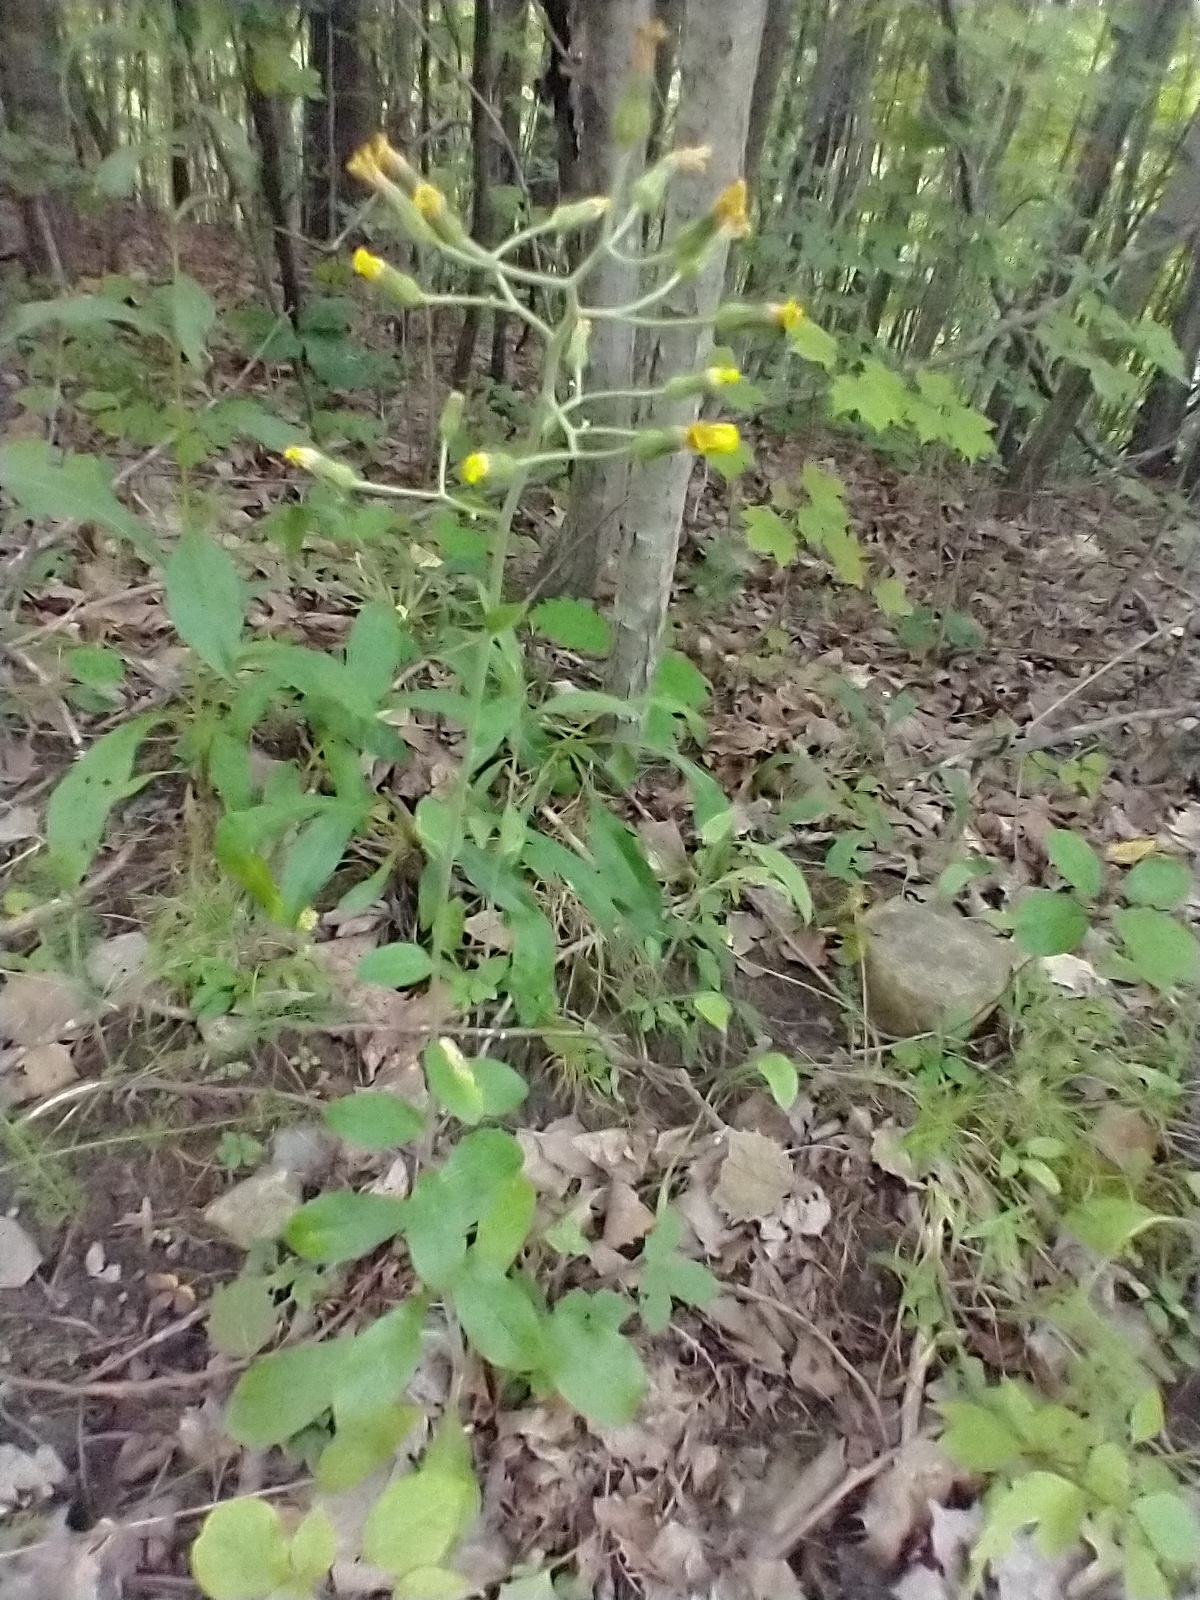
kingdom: Plantae
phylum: Tracheophyta
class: Magnoliopsida
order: Asterales
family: Asteraceae
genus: Hieracium
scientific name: Hieracium scabrum
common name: Rough hawkweed
